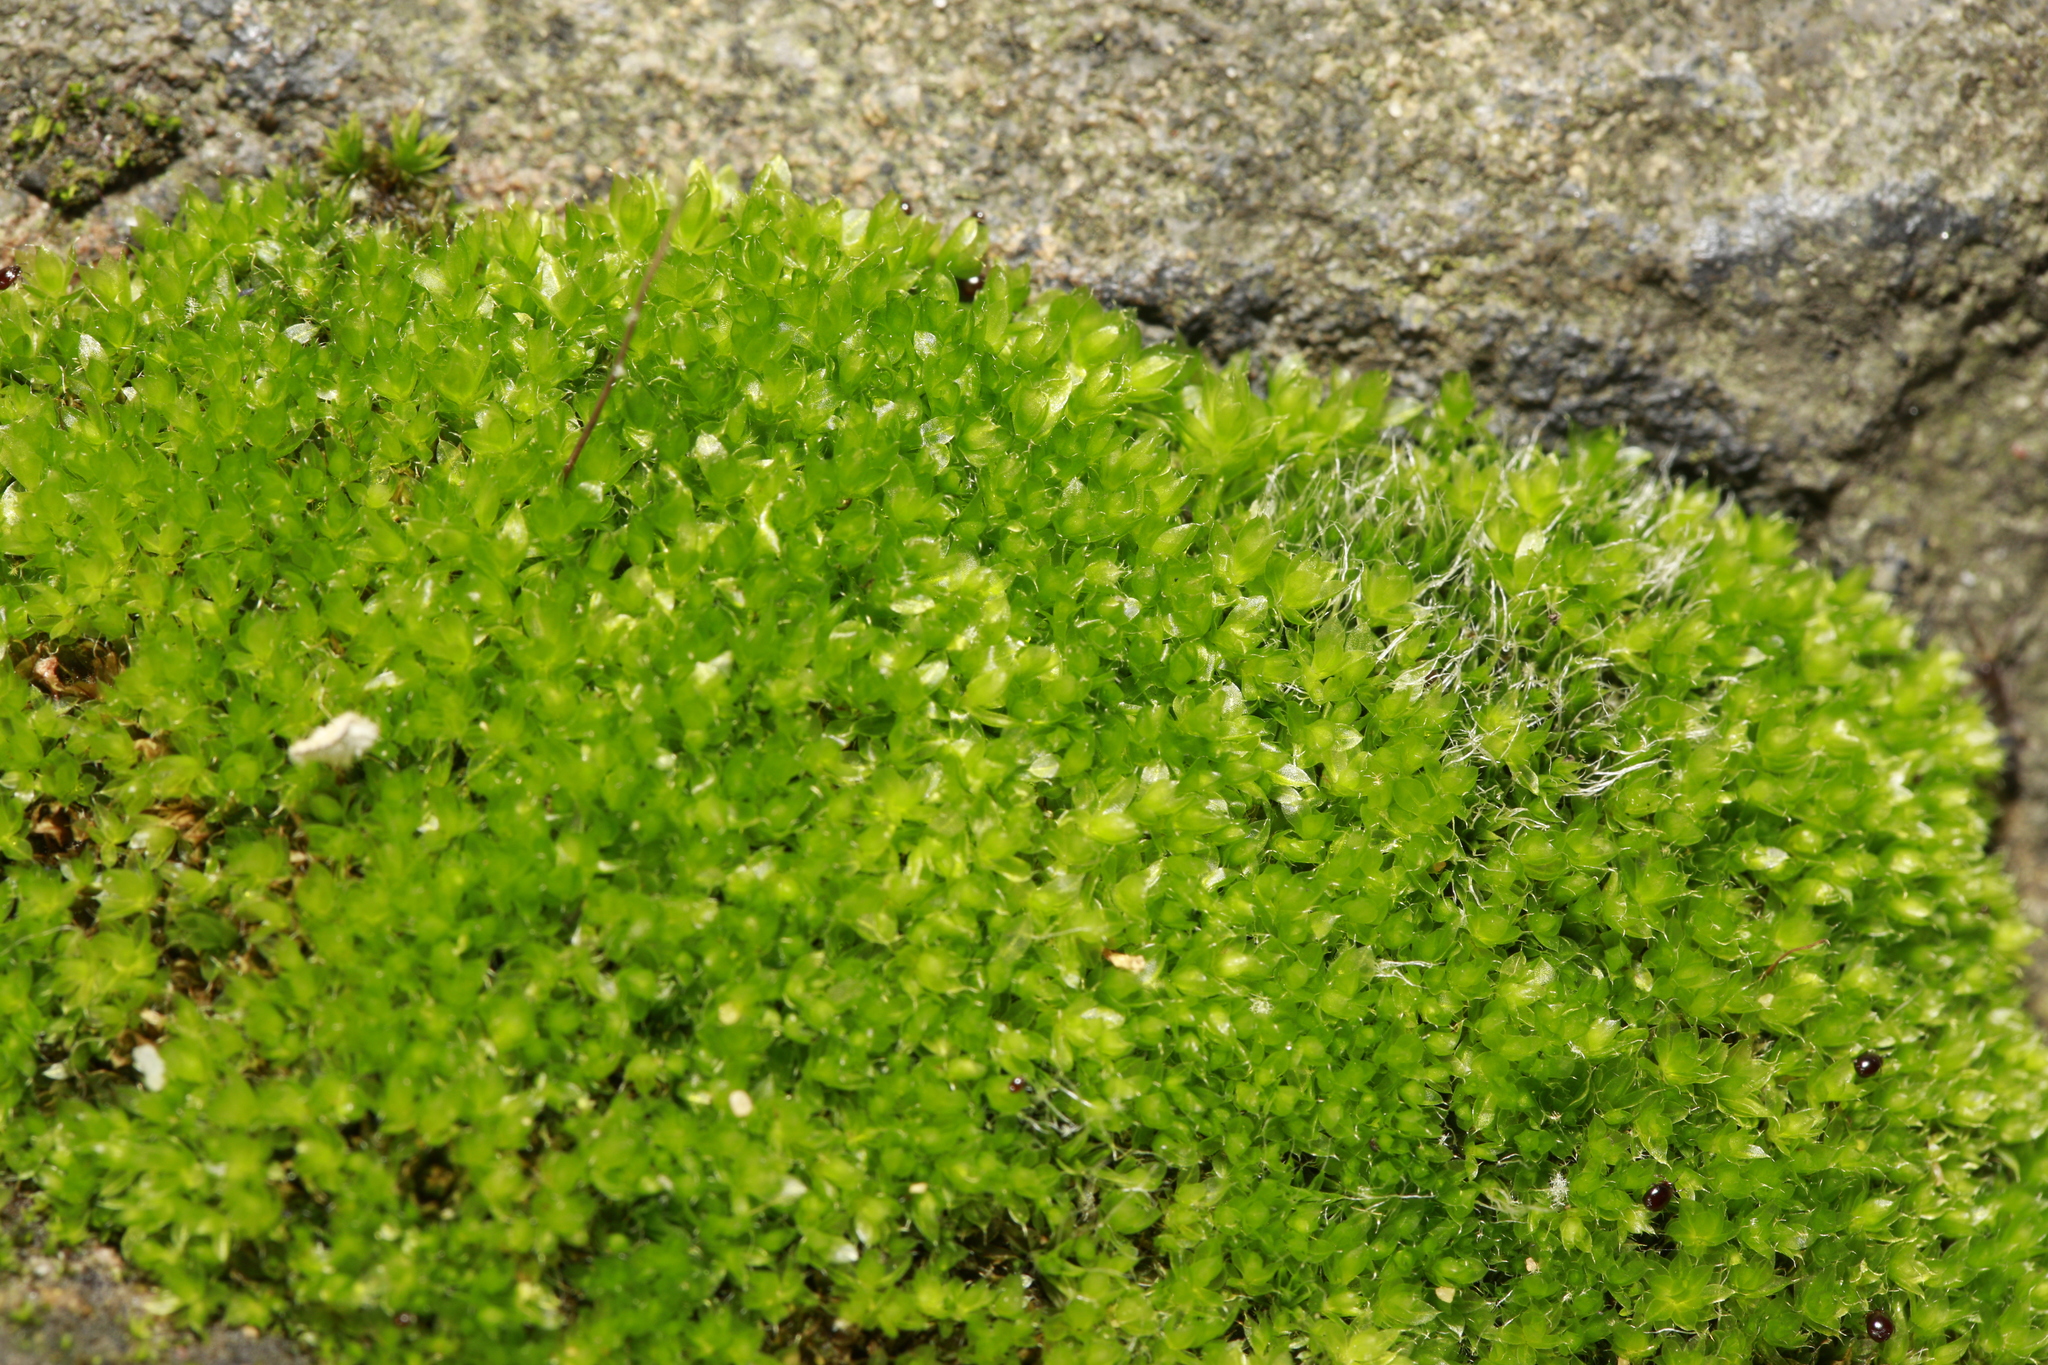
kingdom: Plantae
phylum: Bryophyta
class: Bryopsida
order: Bryales
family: Bryaceae
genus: Rosulabryum
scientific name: Rosulabryum capillare
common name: Capillary thread-moss
